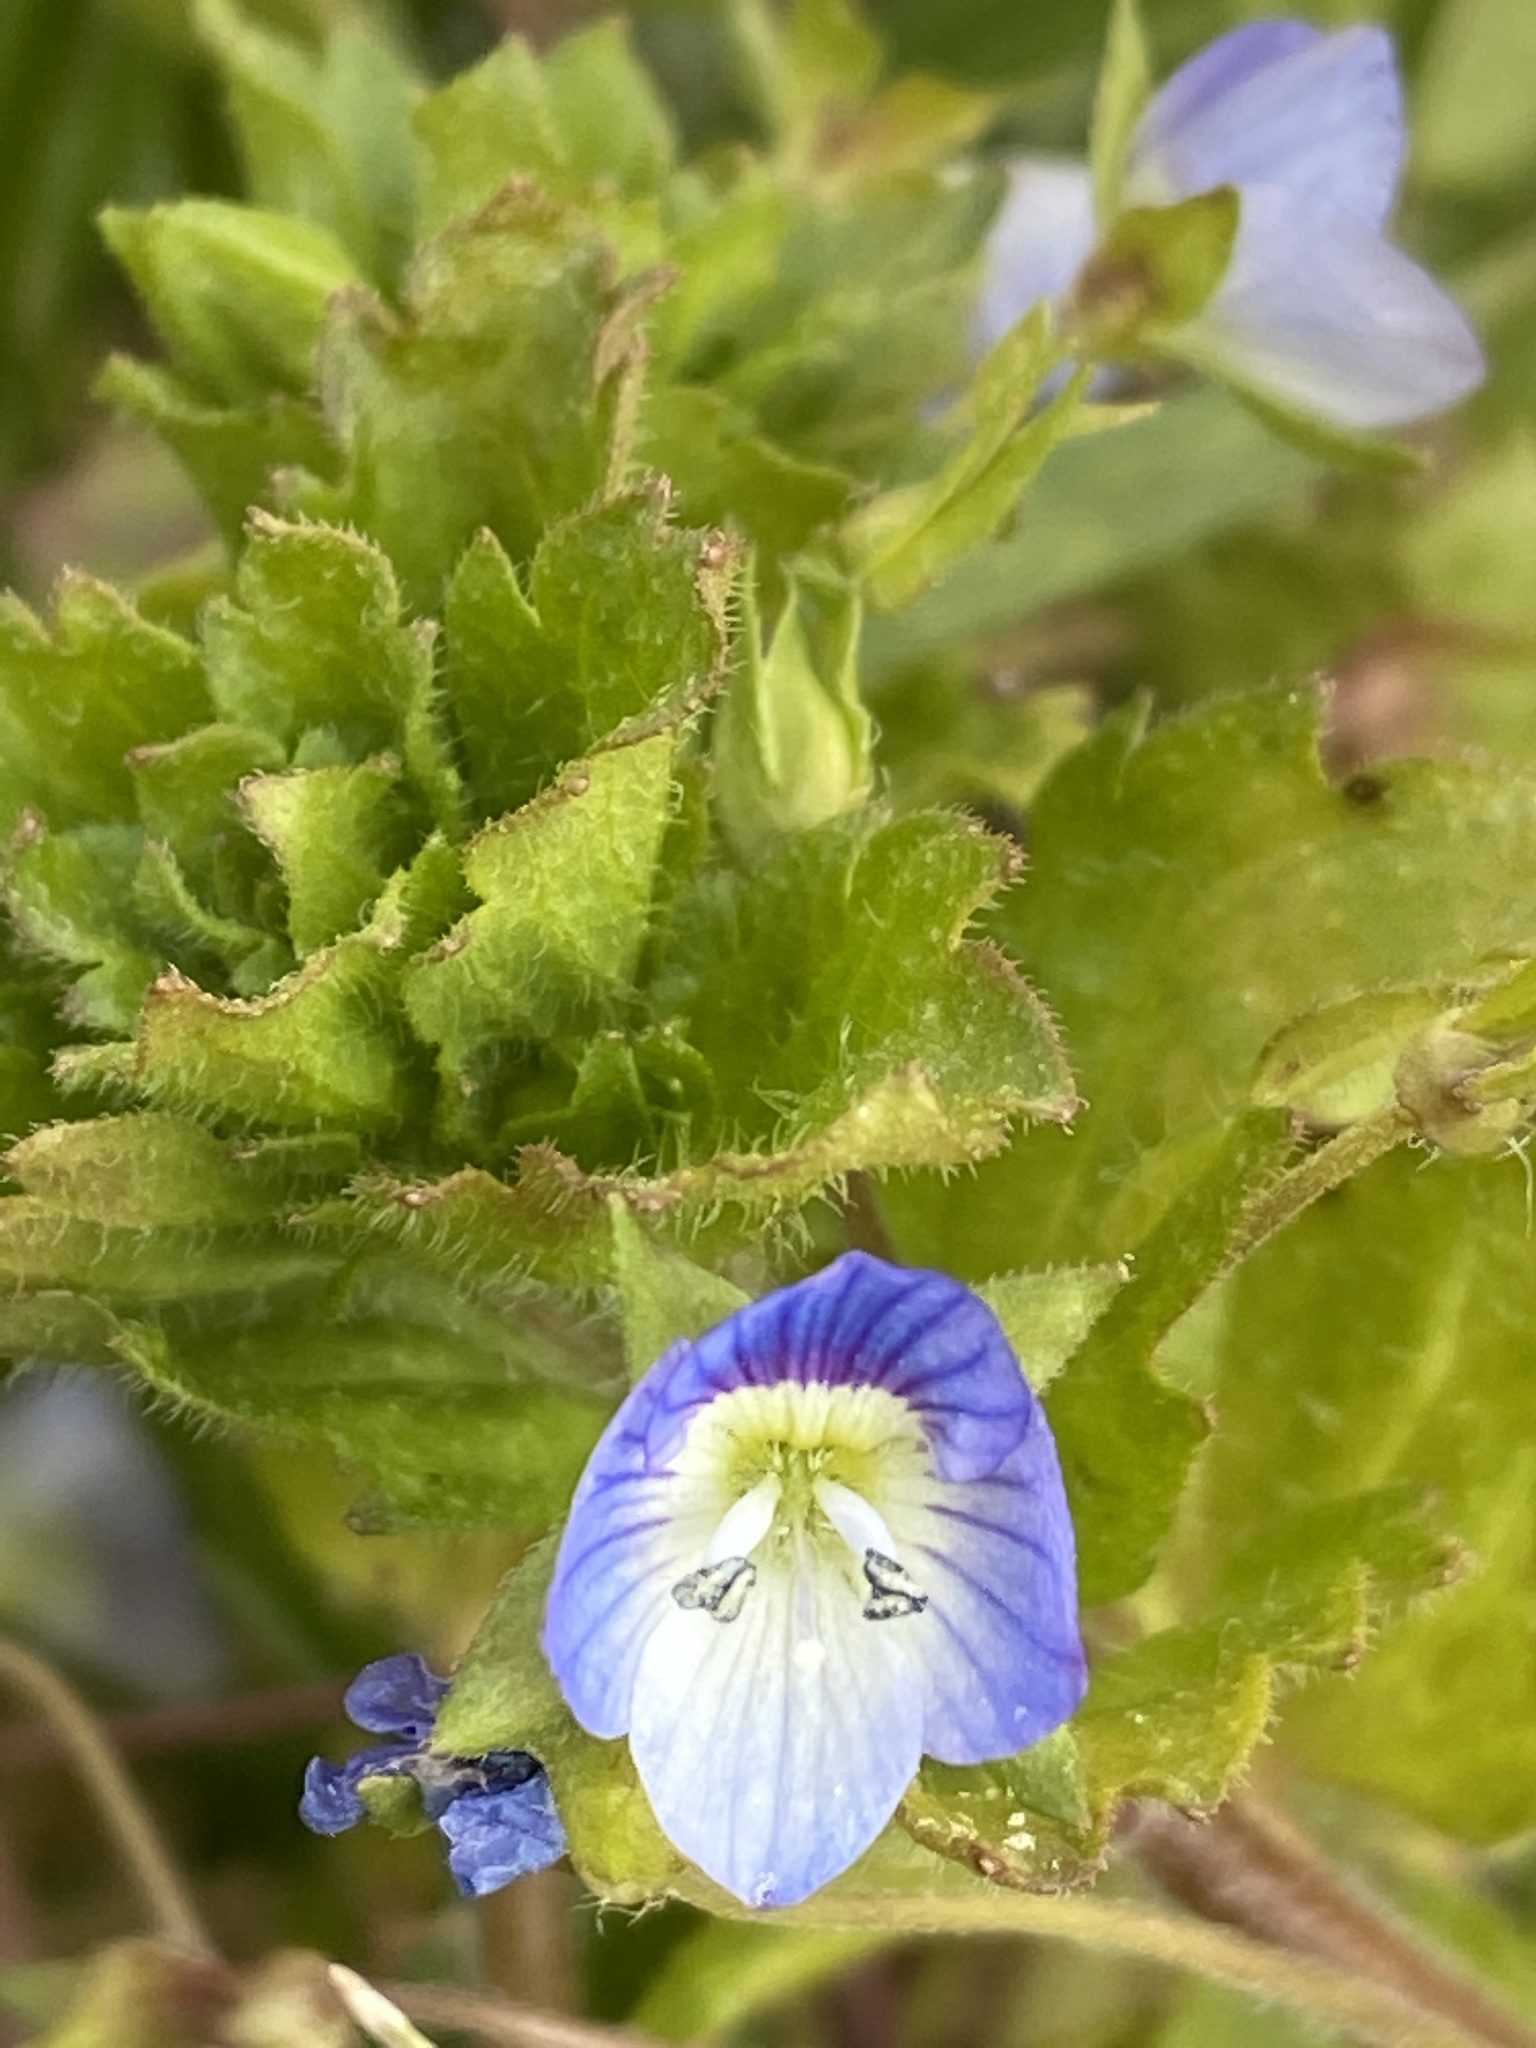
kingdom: Plantae
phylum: Tracheophyta
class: Magnoliopsida
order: Lamiales
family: Plantaginaceae
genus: Veronica
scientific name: Veronica persica
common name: Common field-speedwell
